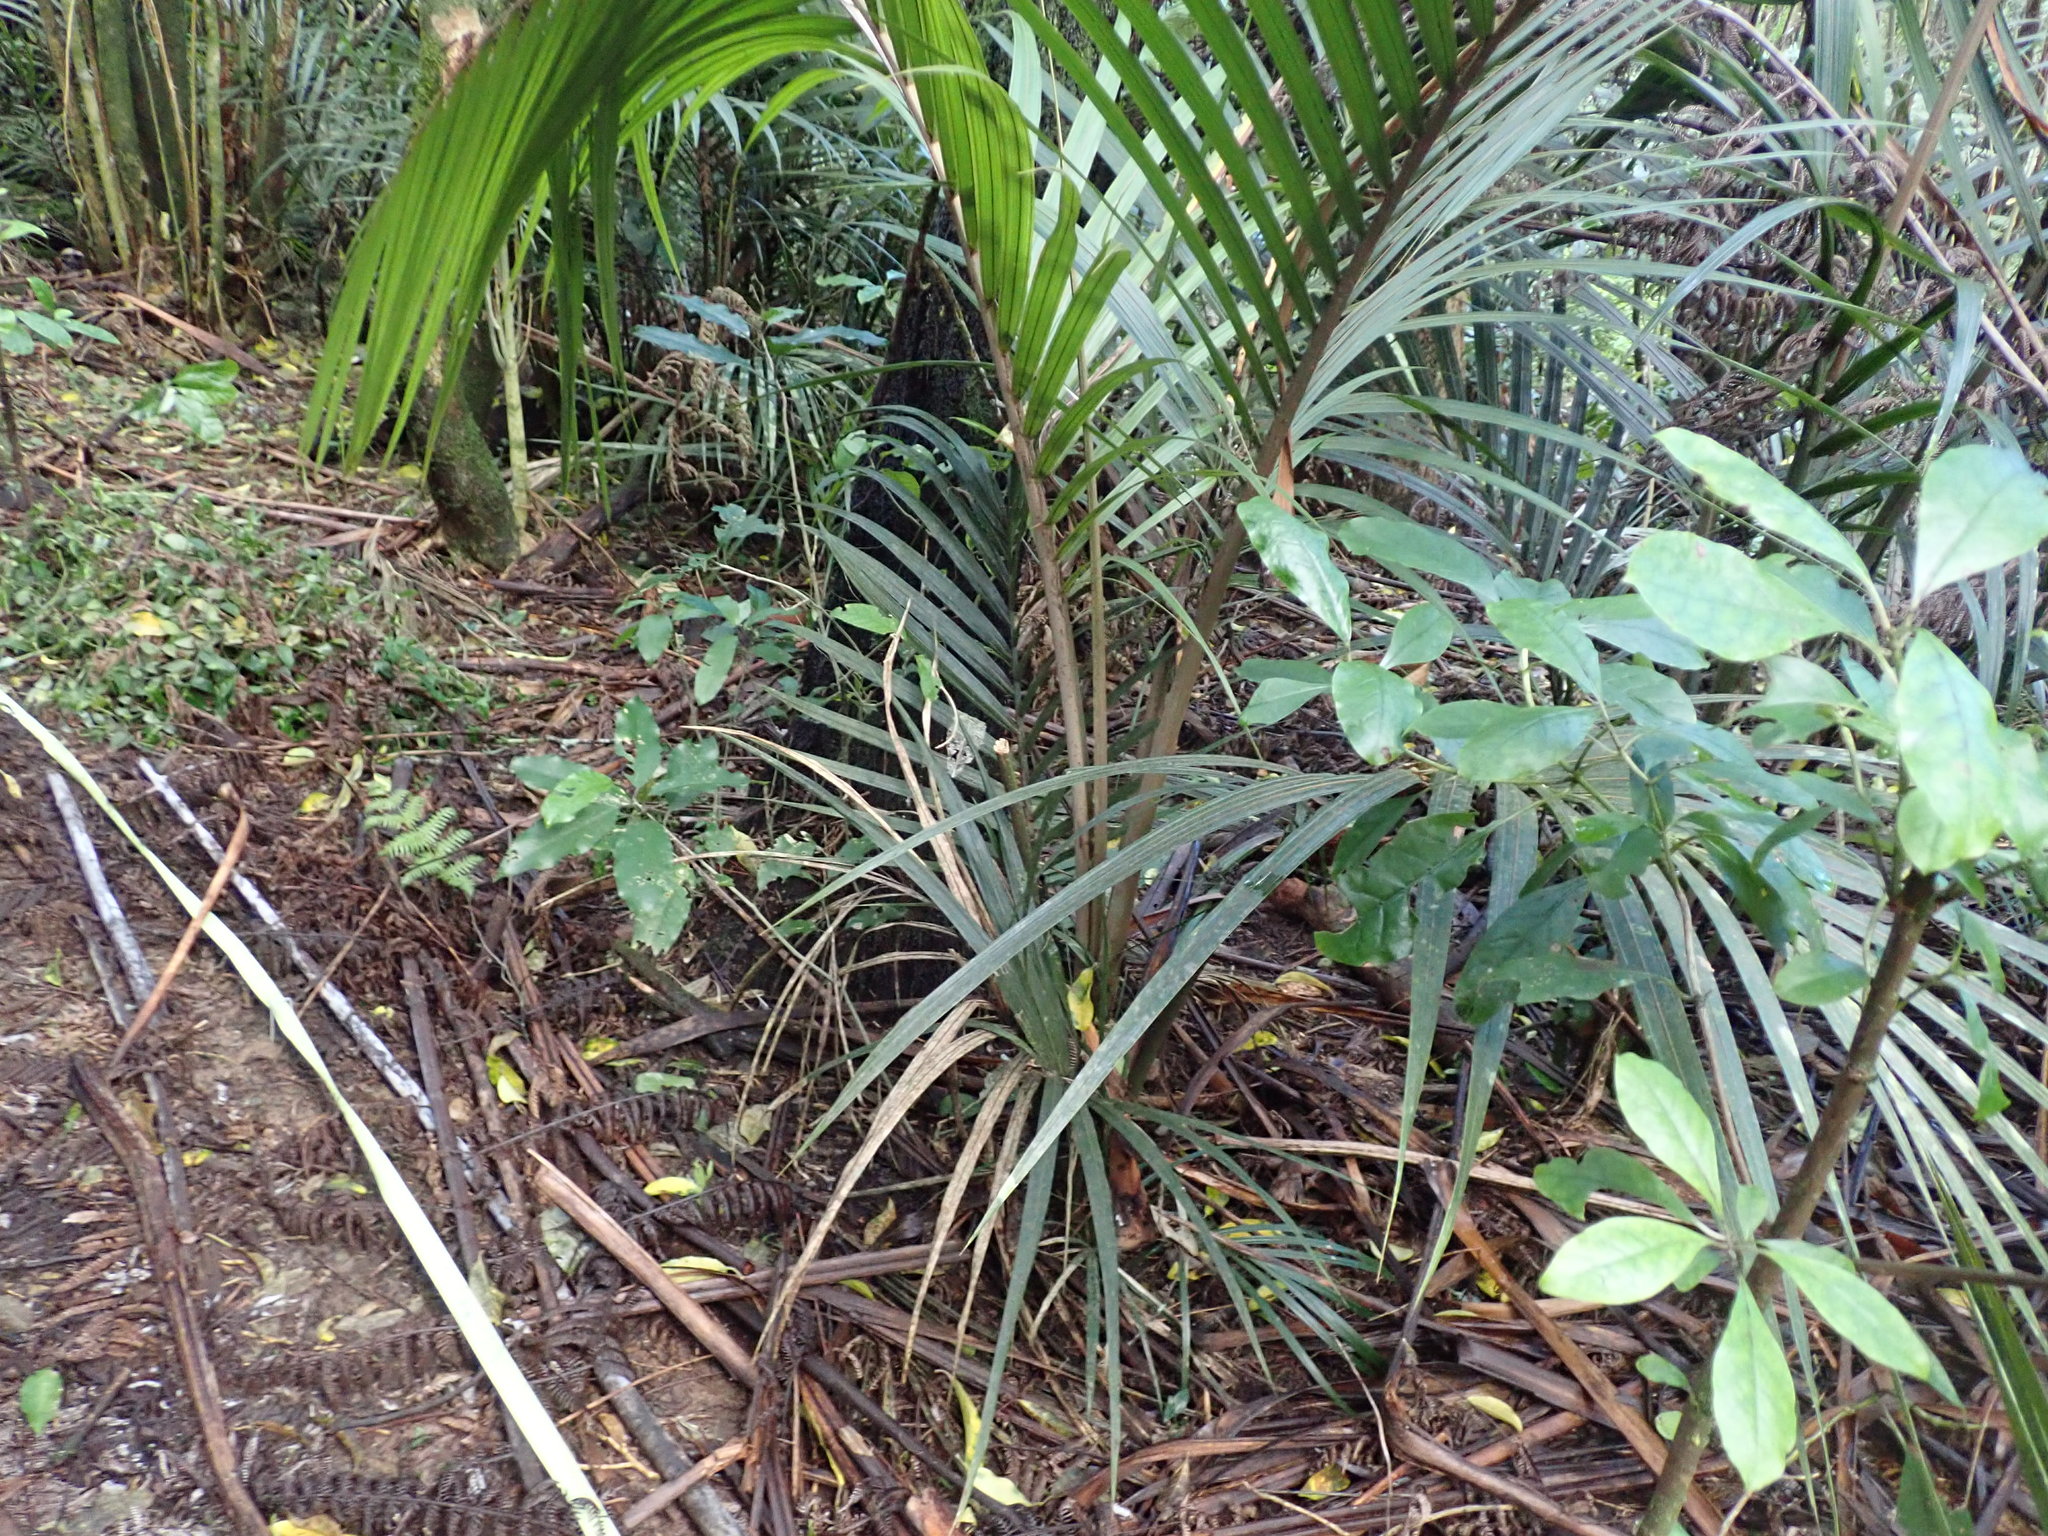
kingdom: Plantae
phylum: Tracheophyta
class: Liliopsida
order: Arecales
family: Arecaceae
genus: Rhopalostylis
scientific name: Rhopalostylis sapida
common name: Feather-duster palm
